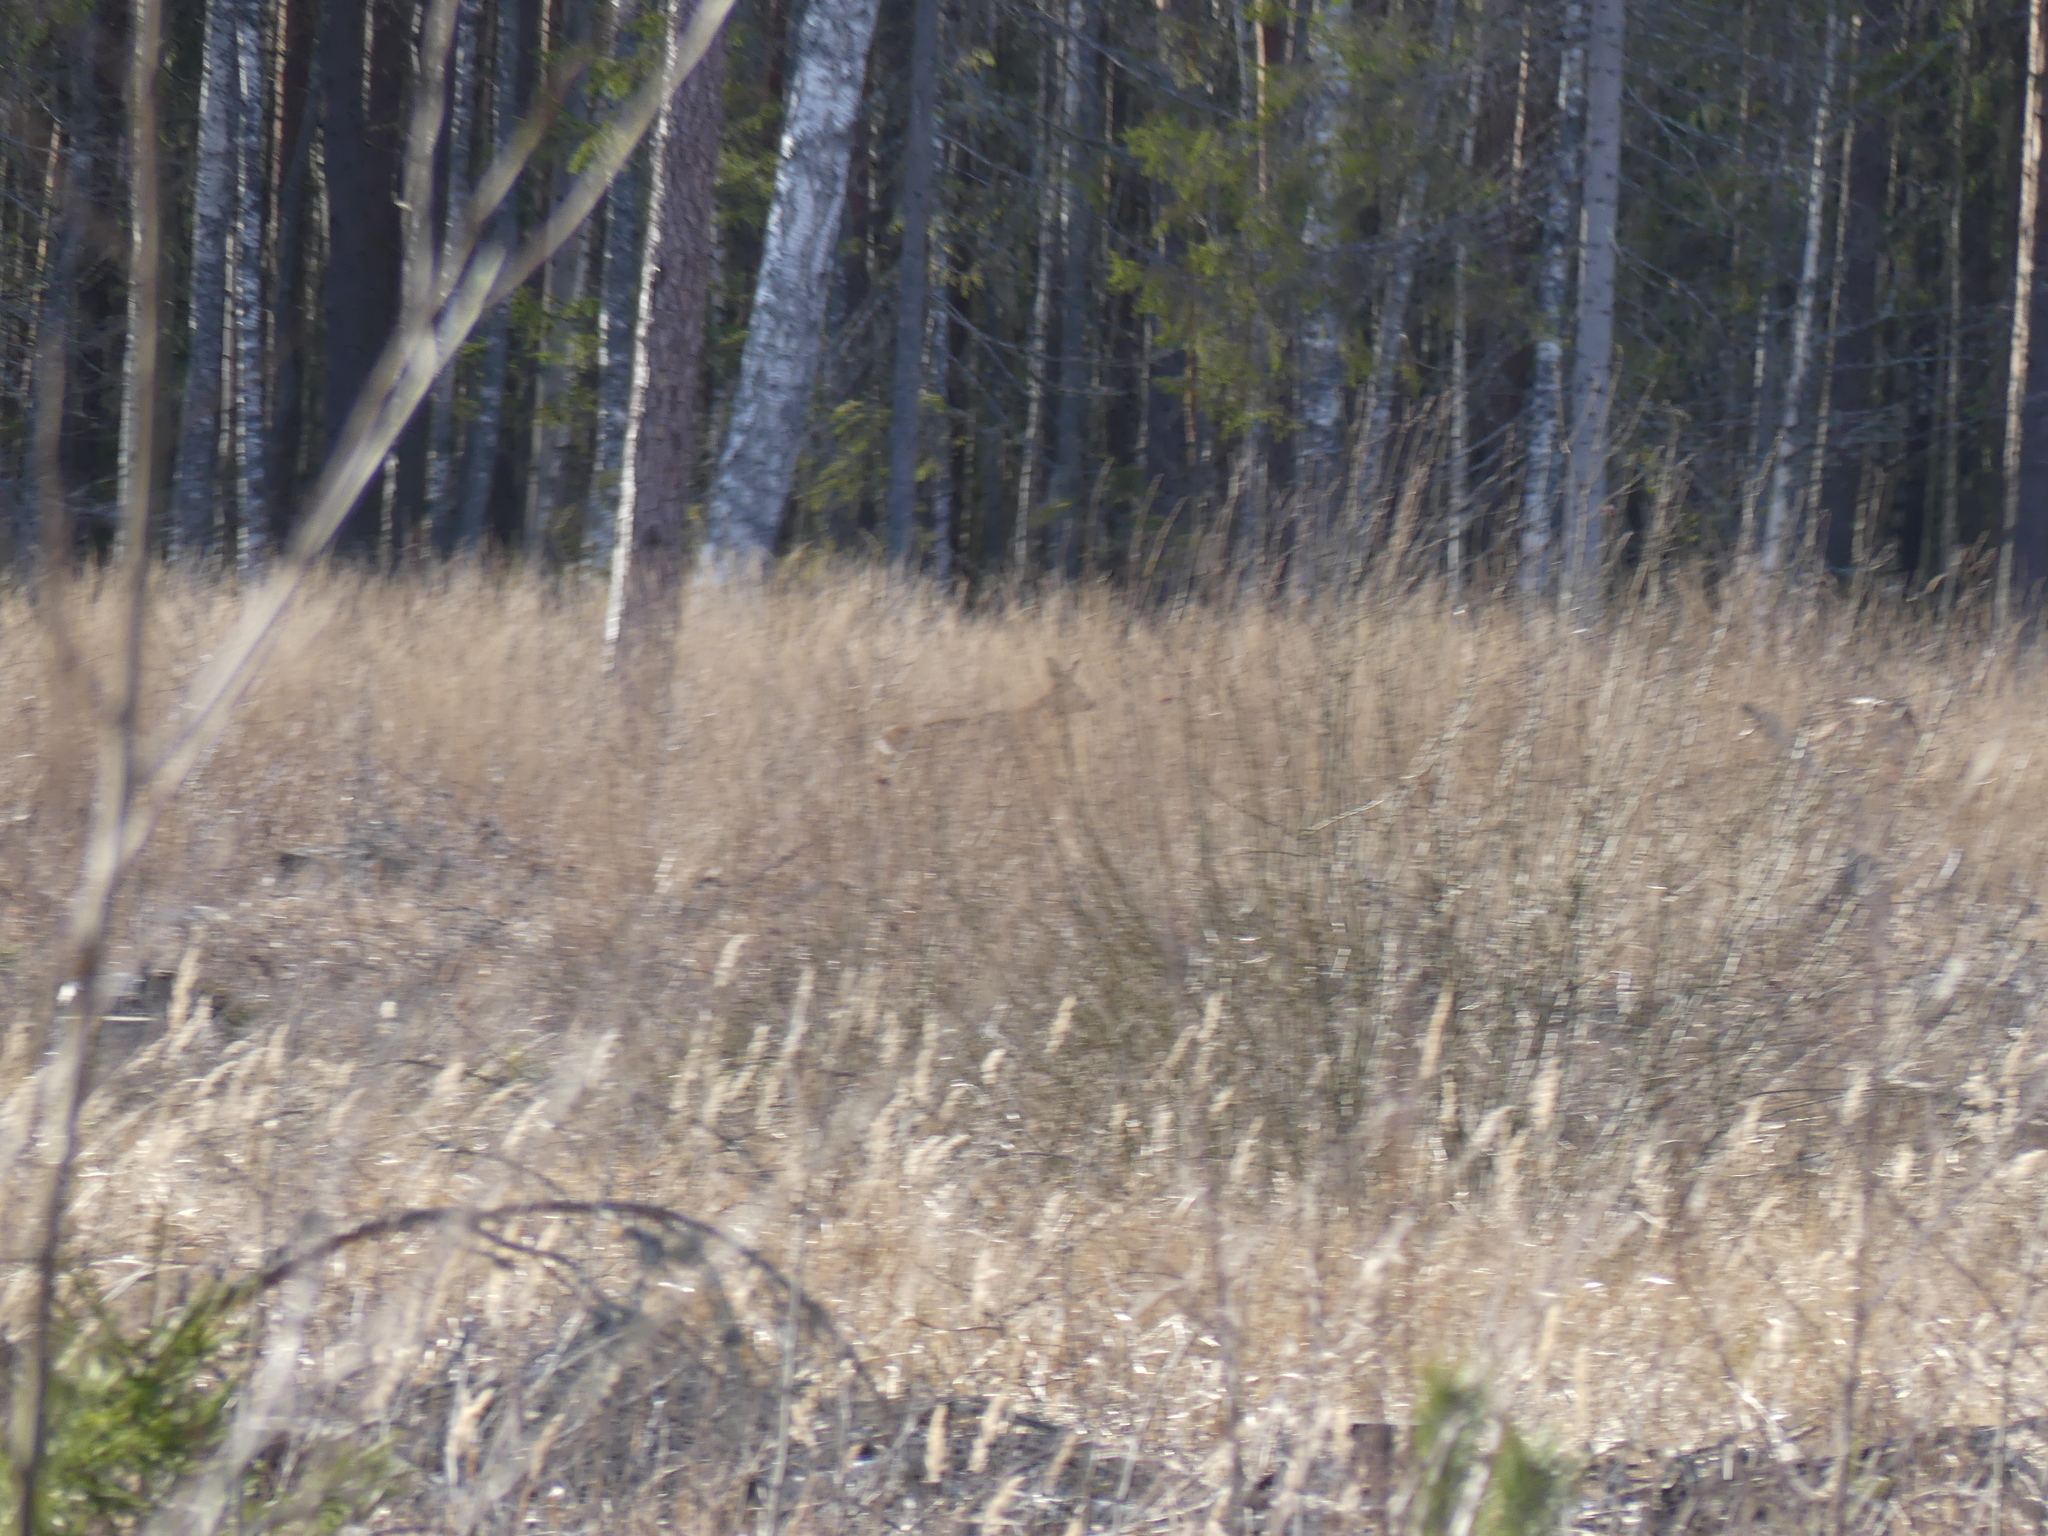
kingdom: Animalia
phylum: Chordata
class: Mammalia
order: Artiodactyla
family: Cervidae
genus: Capreolus
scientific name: Capreolus capreolus
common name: Western roe deer
